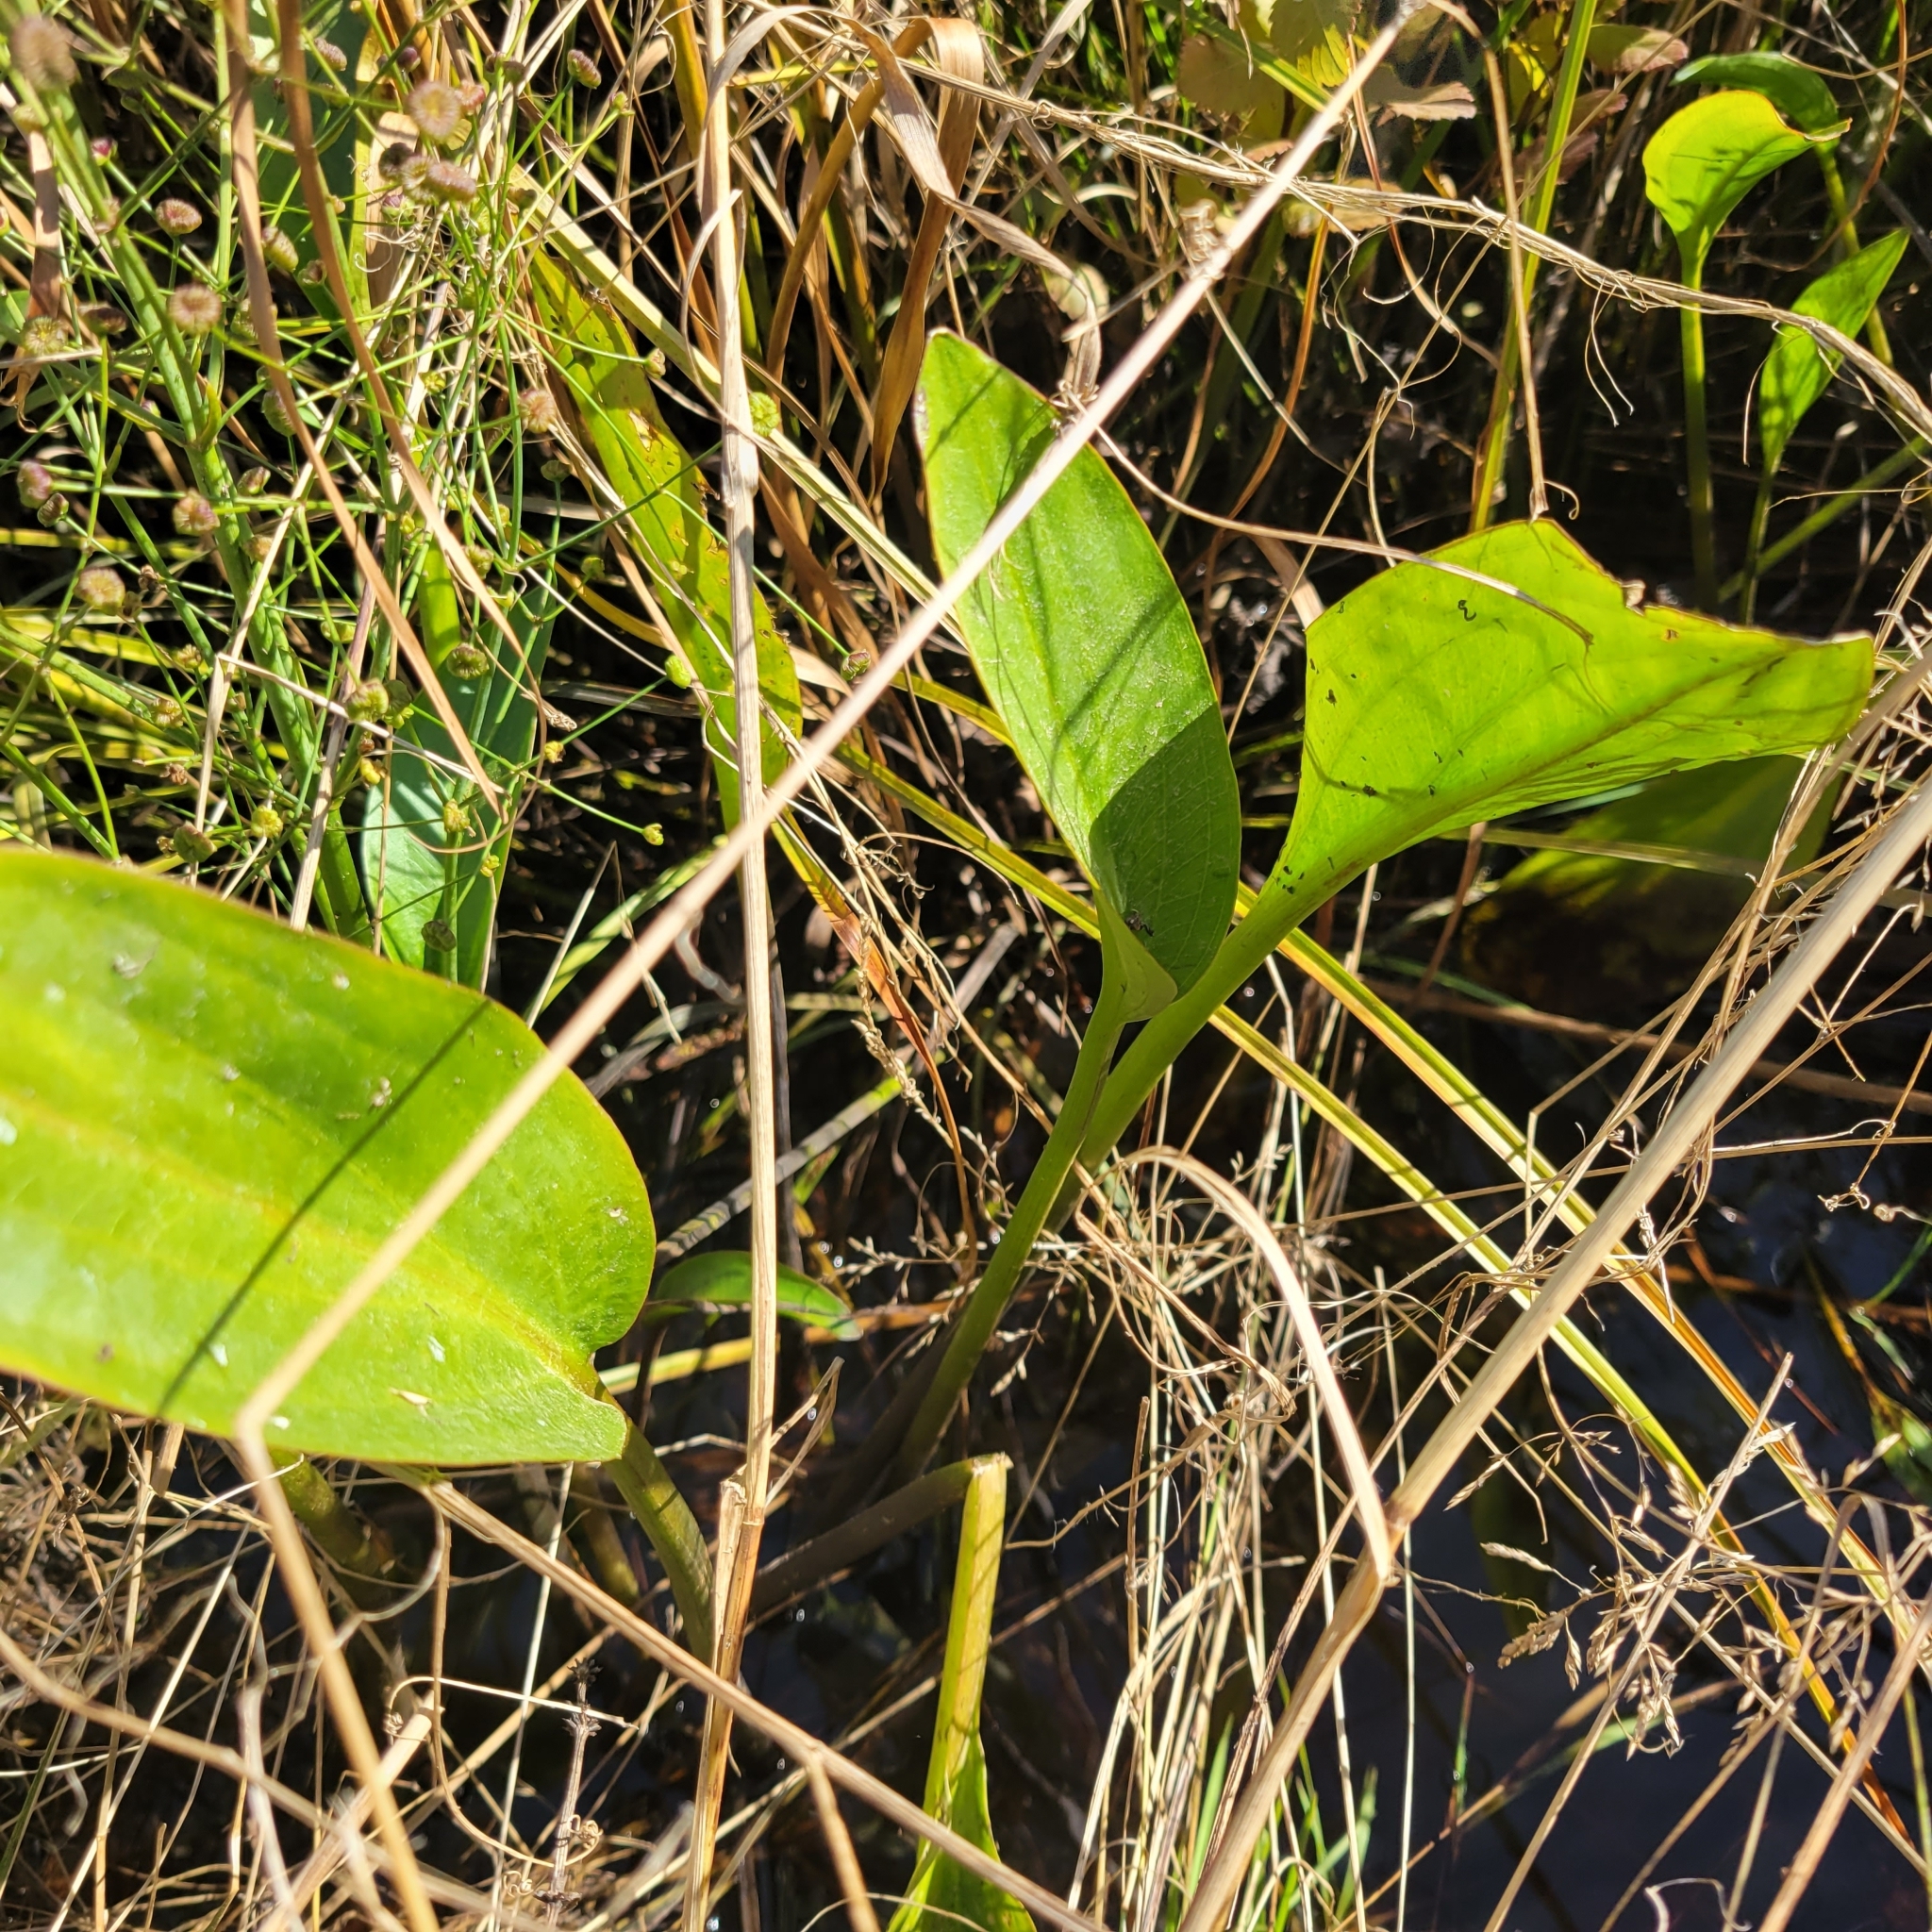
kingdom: Plantae
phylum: Tracheophyta
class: Liliopsida
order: Alismatales
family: Alismataceae
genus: Alisma
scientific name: Alisma triviale
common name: Northern water-plantain
